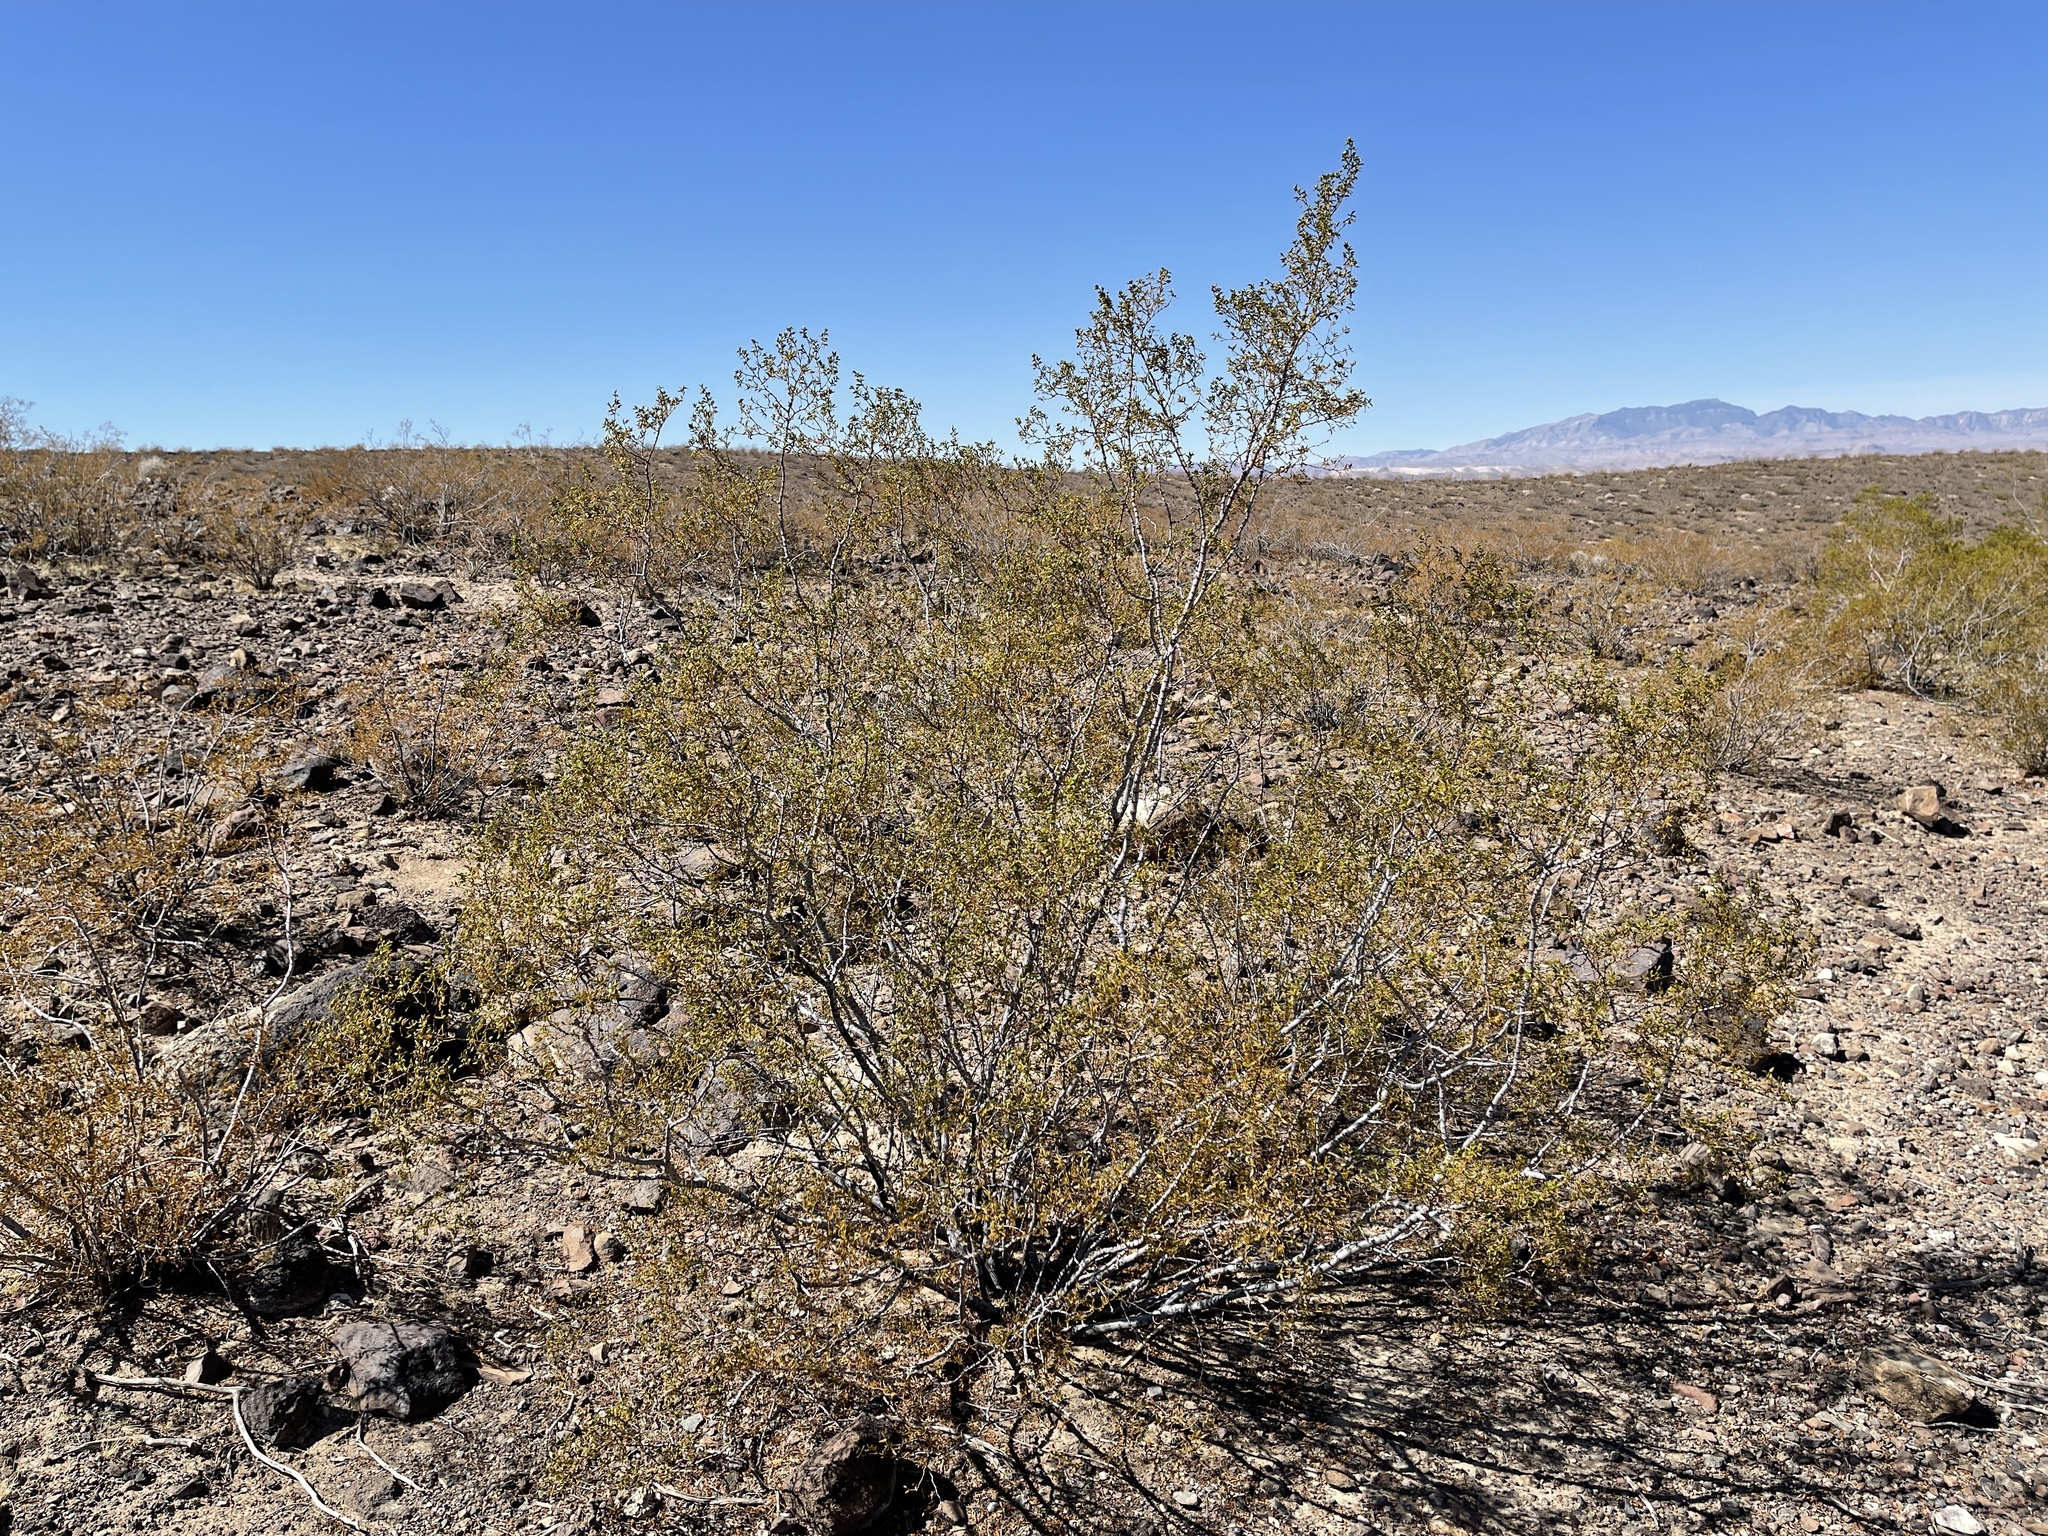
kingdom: Plantae
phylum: Tracheophyta
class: Magnoliopsida
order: Zygophyllales
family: Zygophyllaceae
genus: Larrea
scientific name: Larrea tridentata
